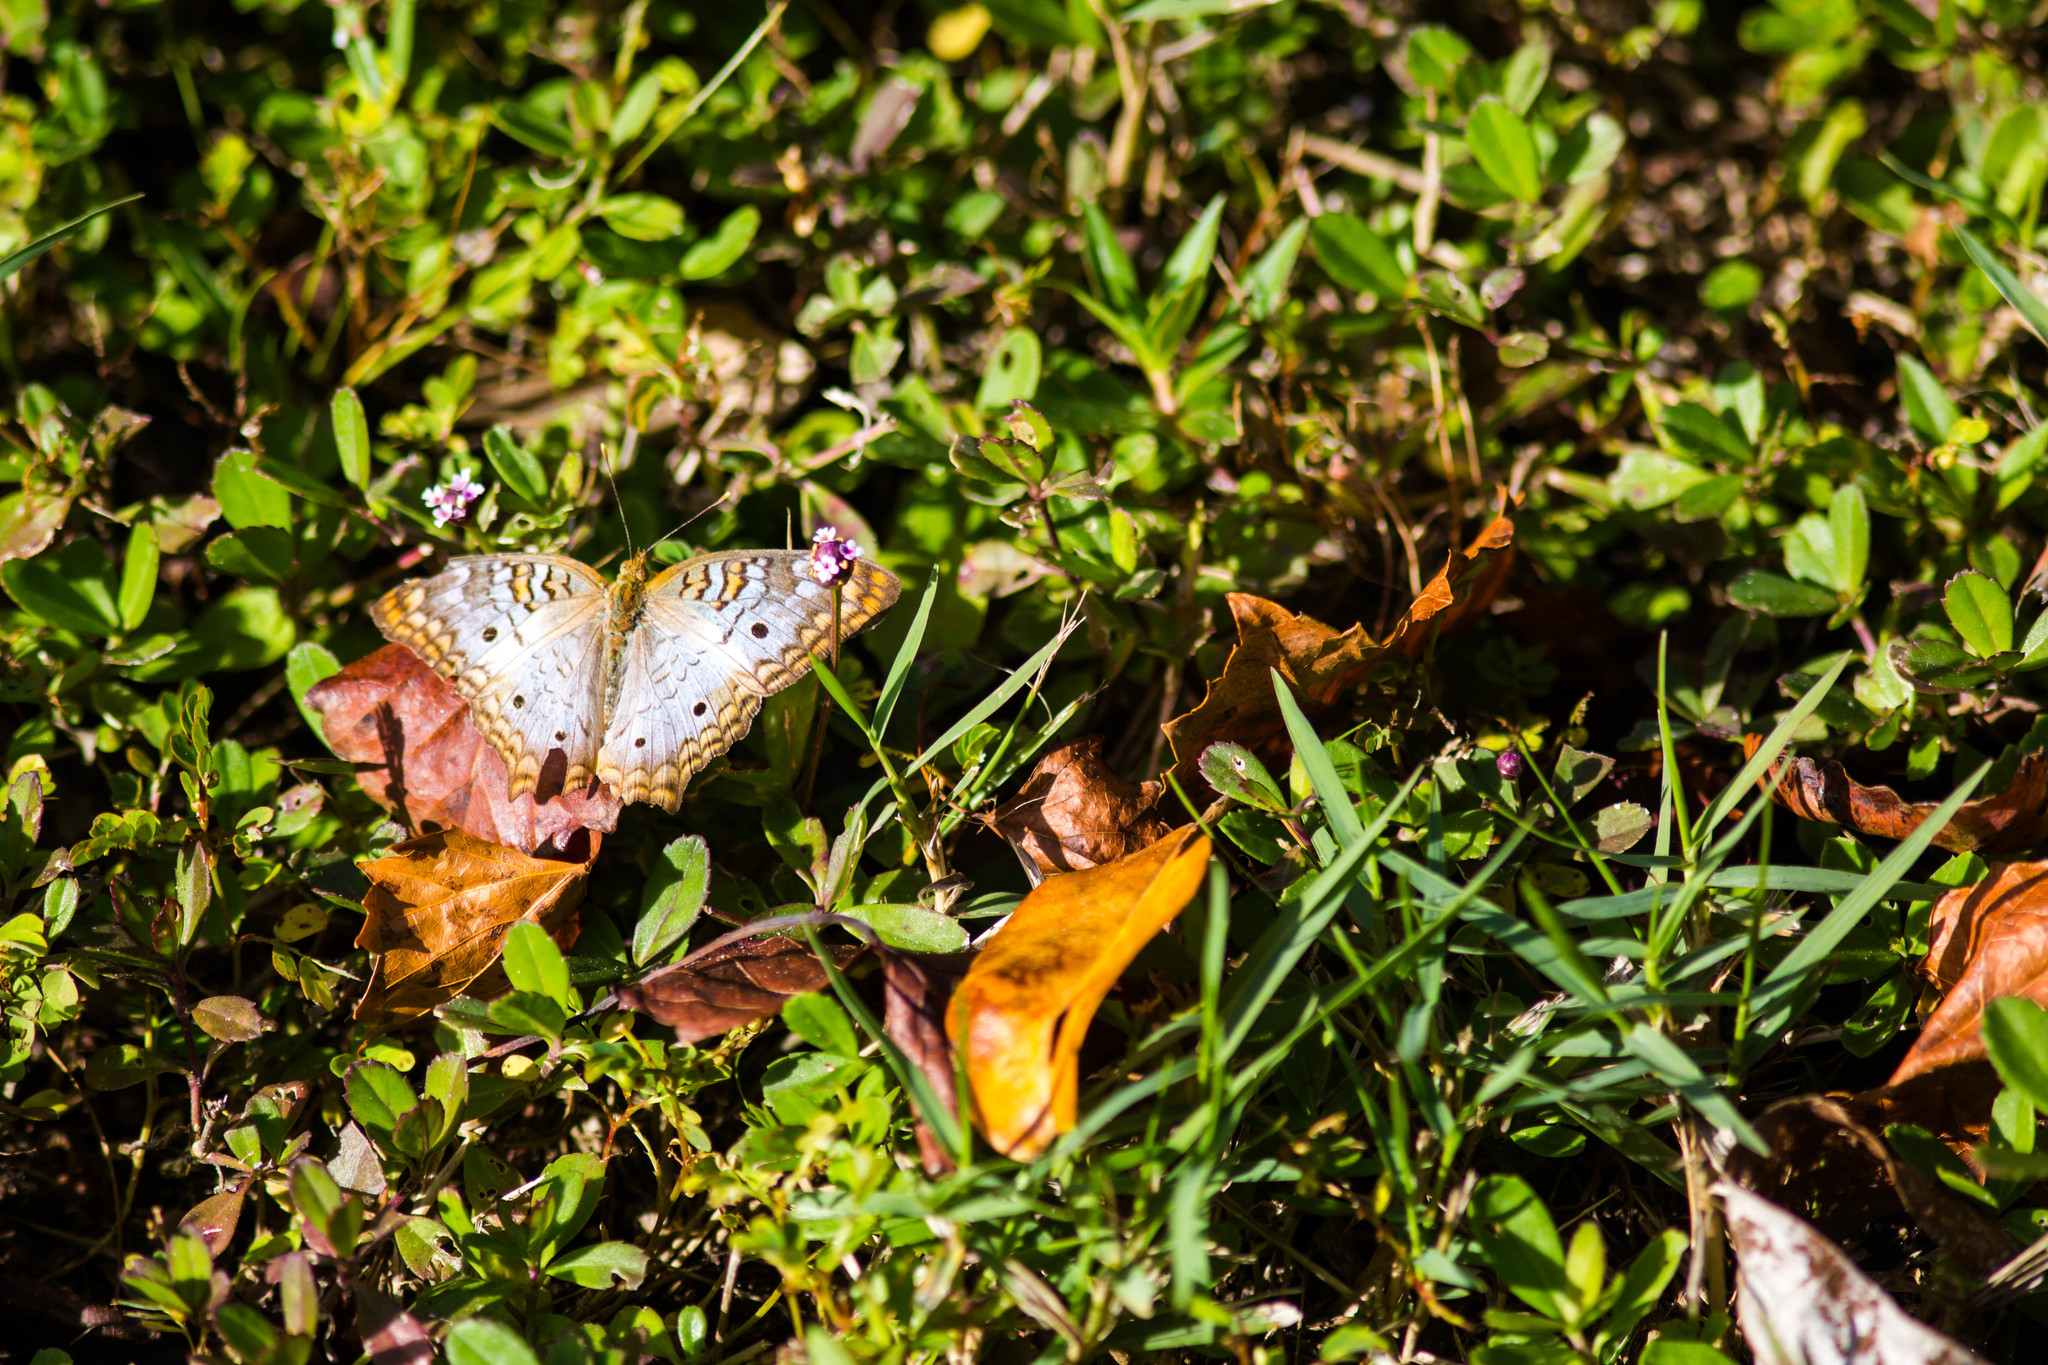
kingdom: Animalia
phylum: Arthropoda
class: Insecta
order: Lepidoptera
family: Nymphalidae
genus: Anartia
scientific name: Anartia jatrophae
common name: White peacock
